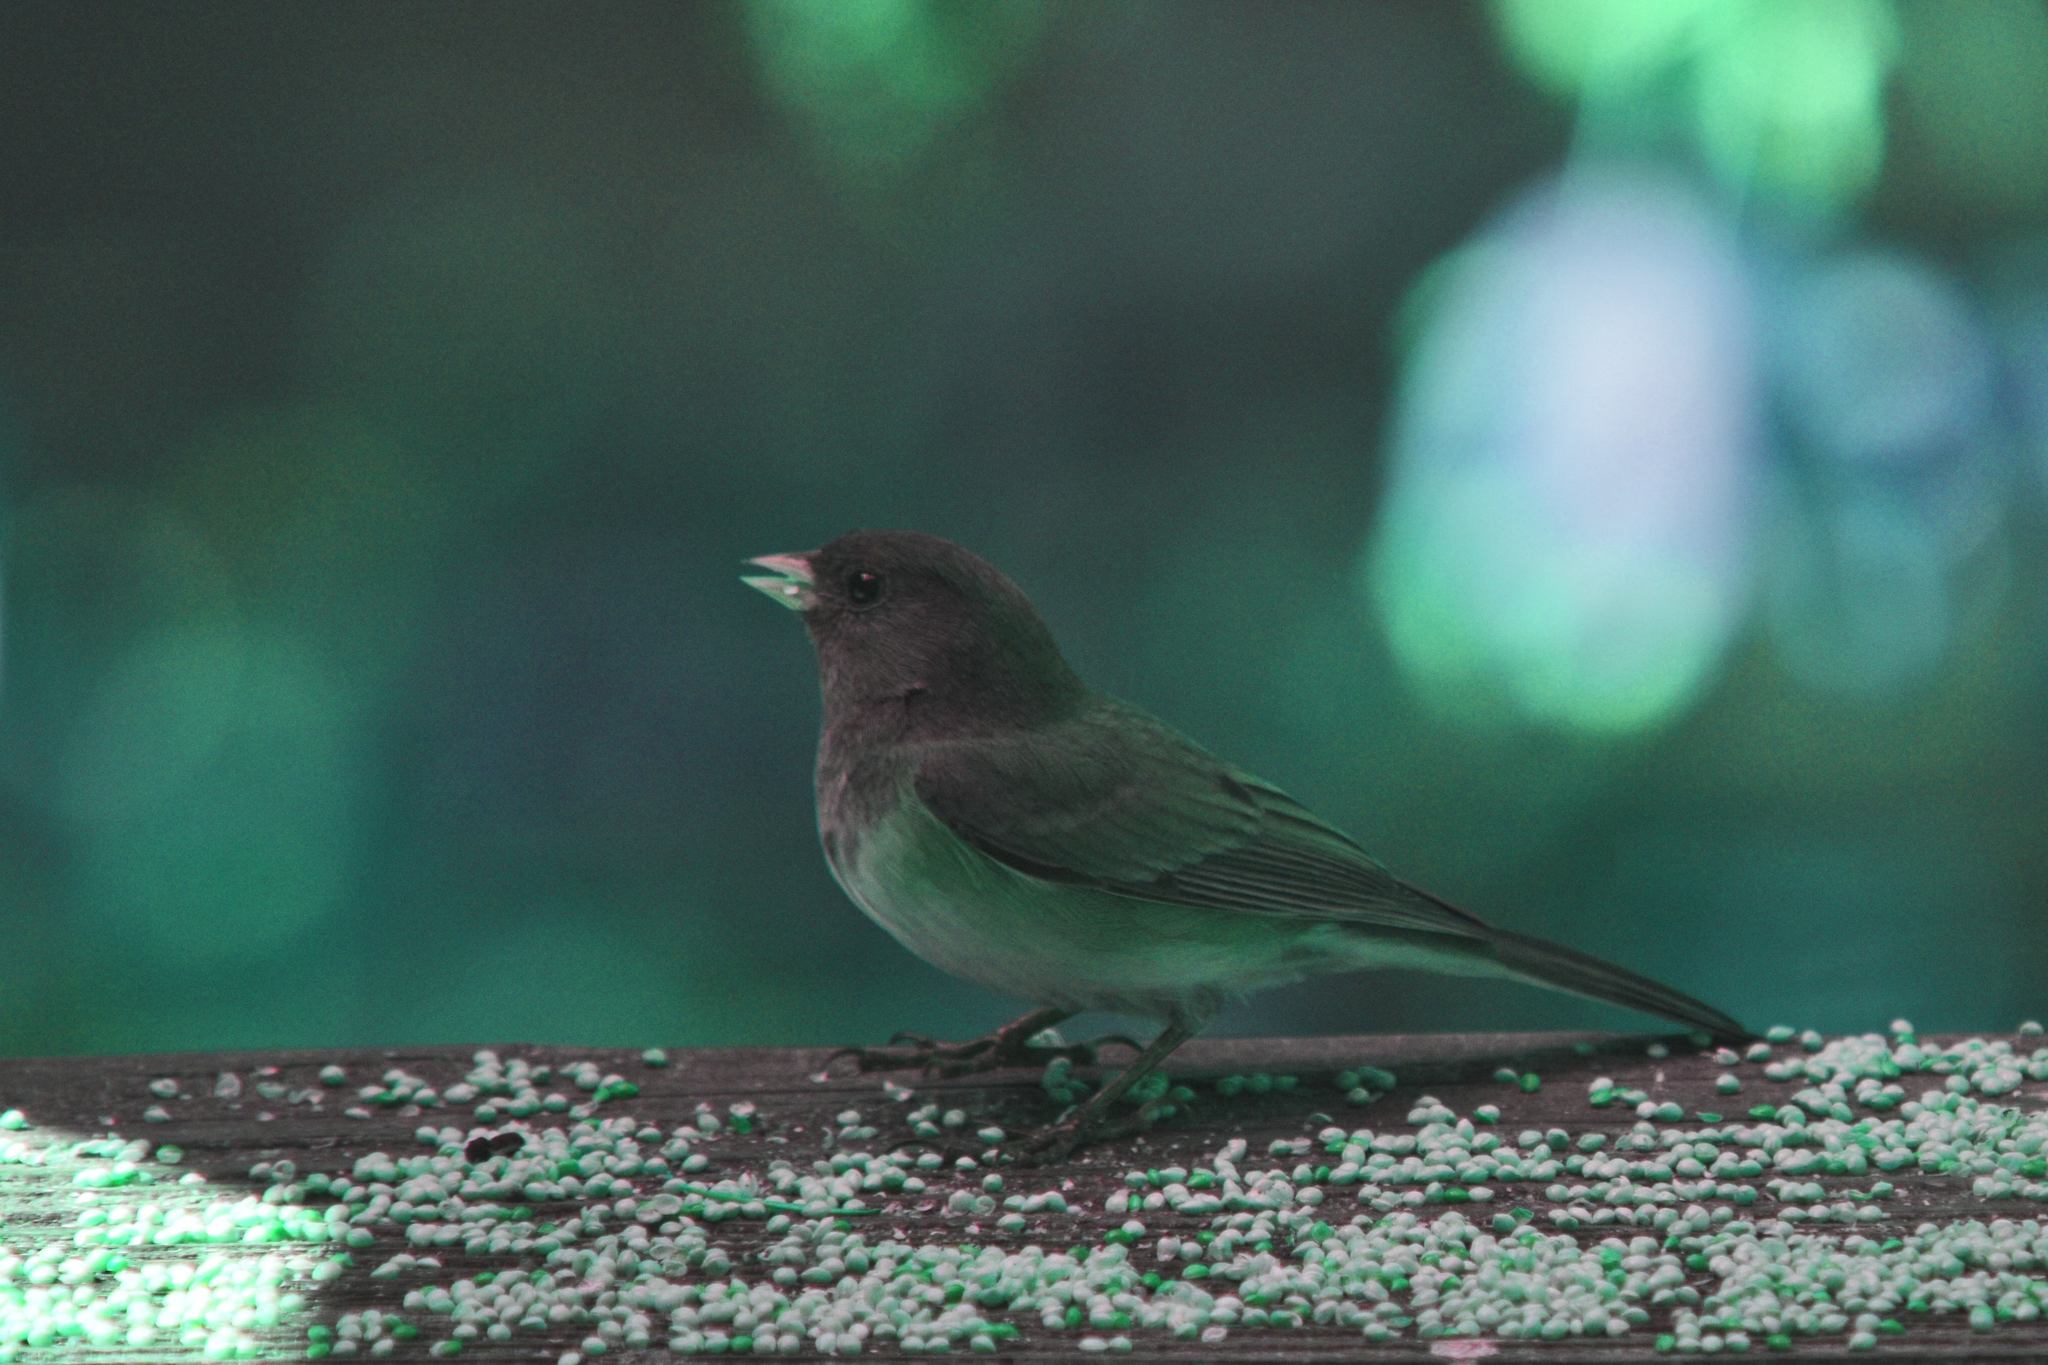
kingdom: Animalia
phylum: Chordata
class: Aves
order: Passeriformes
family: Passerellidae
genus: Junco
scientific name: Junco hyemalis
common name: Dark-eyed junco
